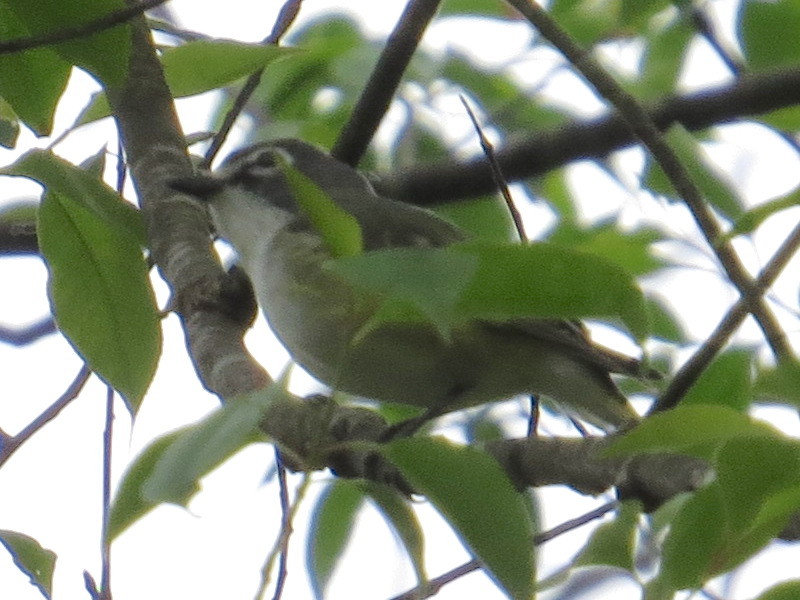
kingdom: Animalia
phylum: Chordata
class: Aves
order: Passeriformes
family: Vireonidae
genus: Vireo
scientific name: Vireo solitarius
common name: Blue-headed vireo
